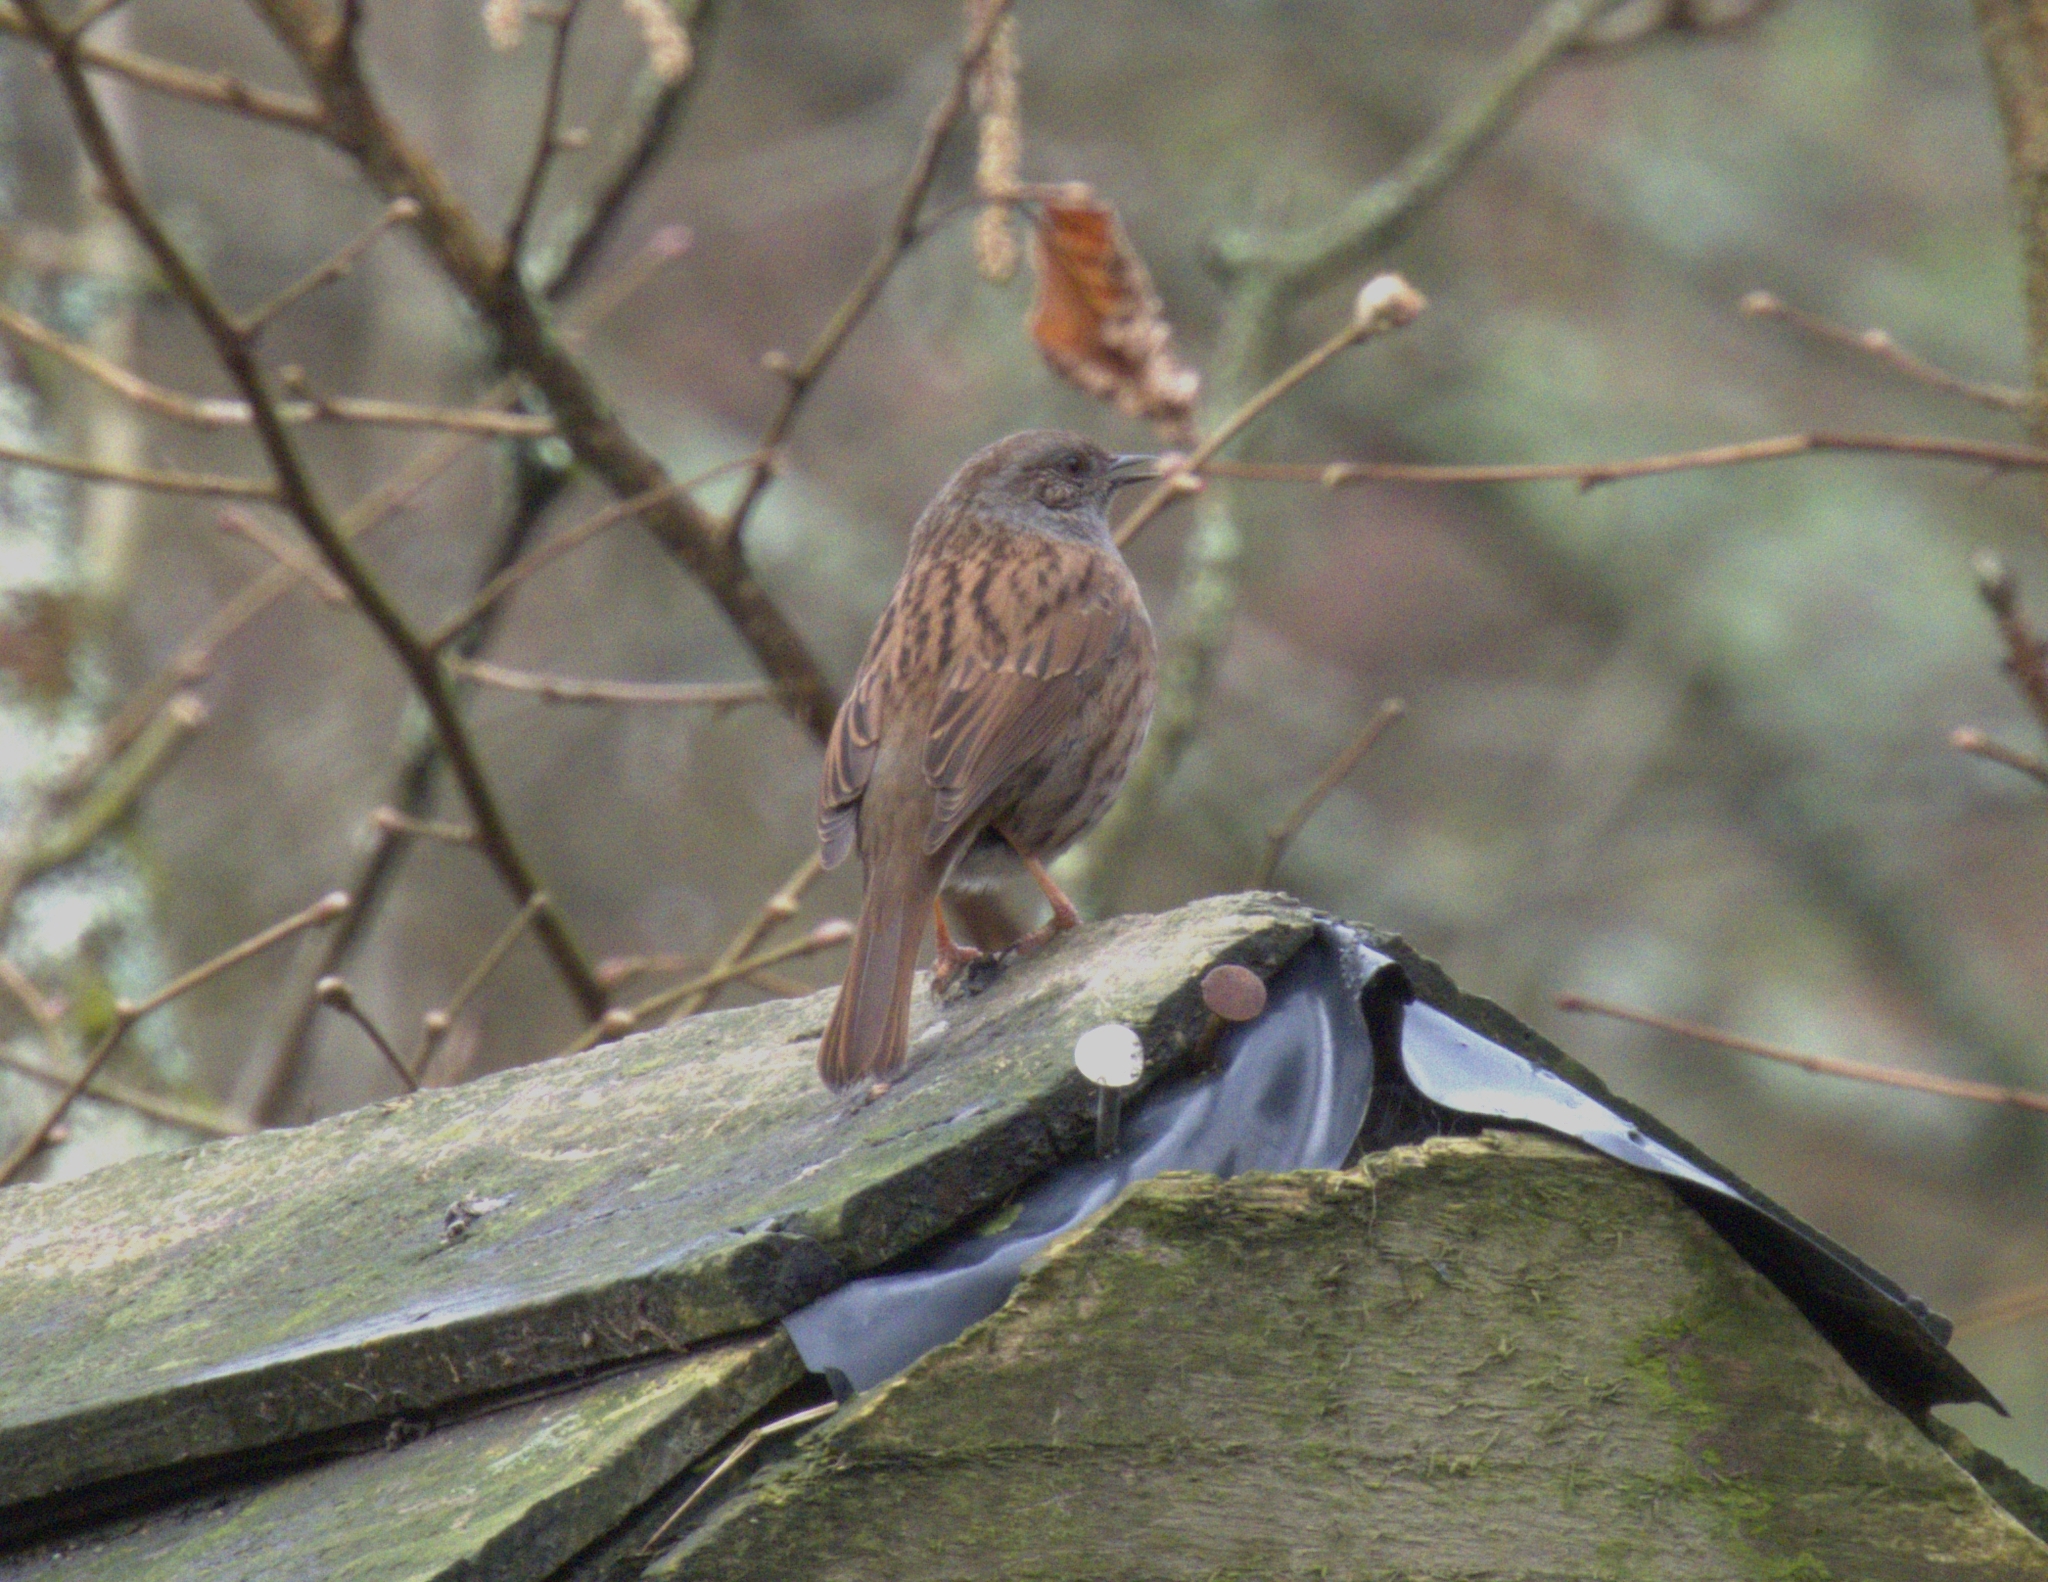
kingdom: Animalia
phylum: Chordata
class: Aves
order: Passeriformes
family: Prunellidae
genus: Prunella
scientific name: Prunella modularis
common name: Dunnock
